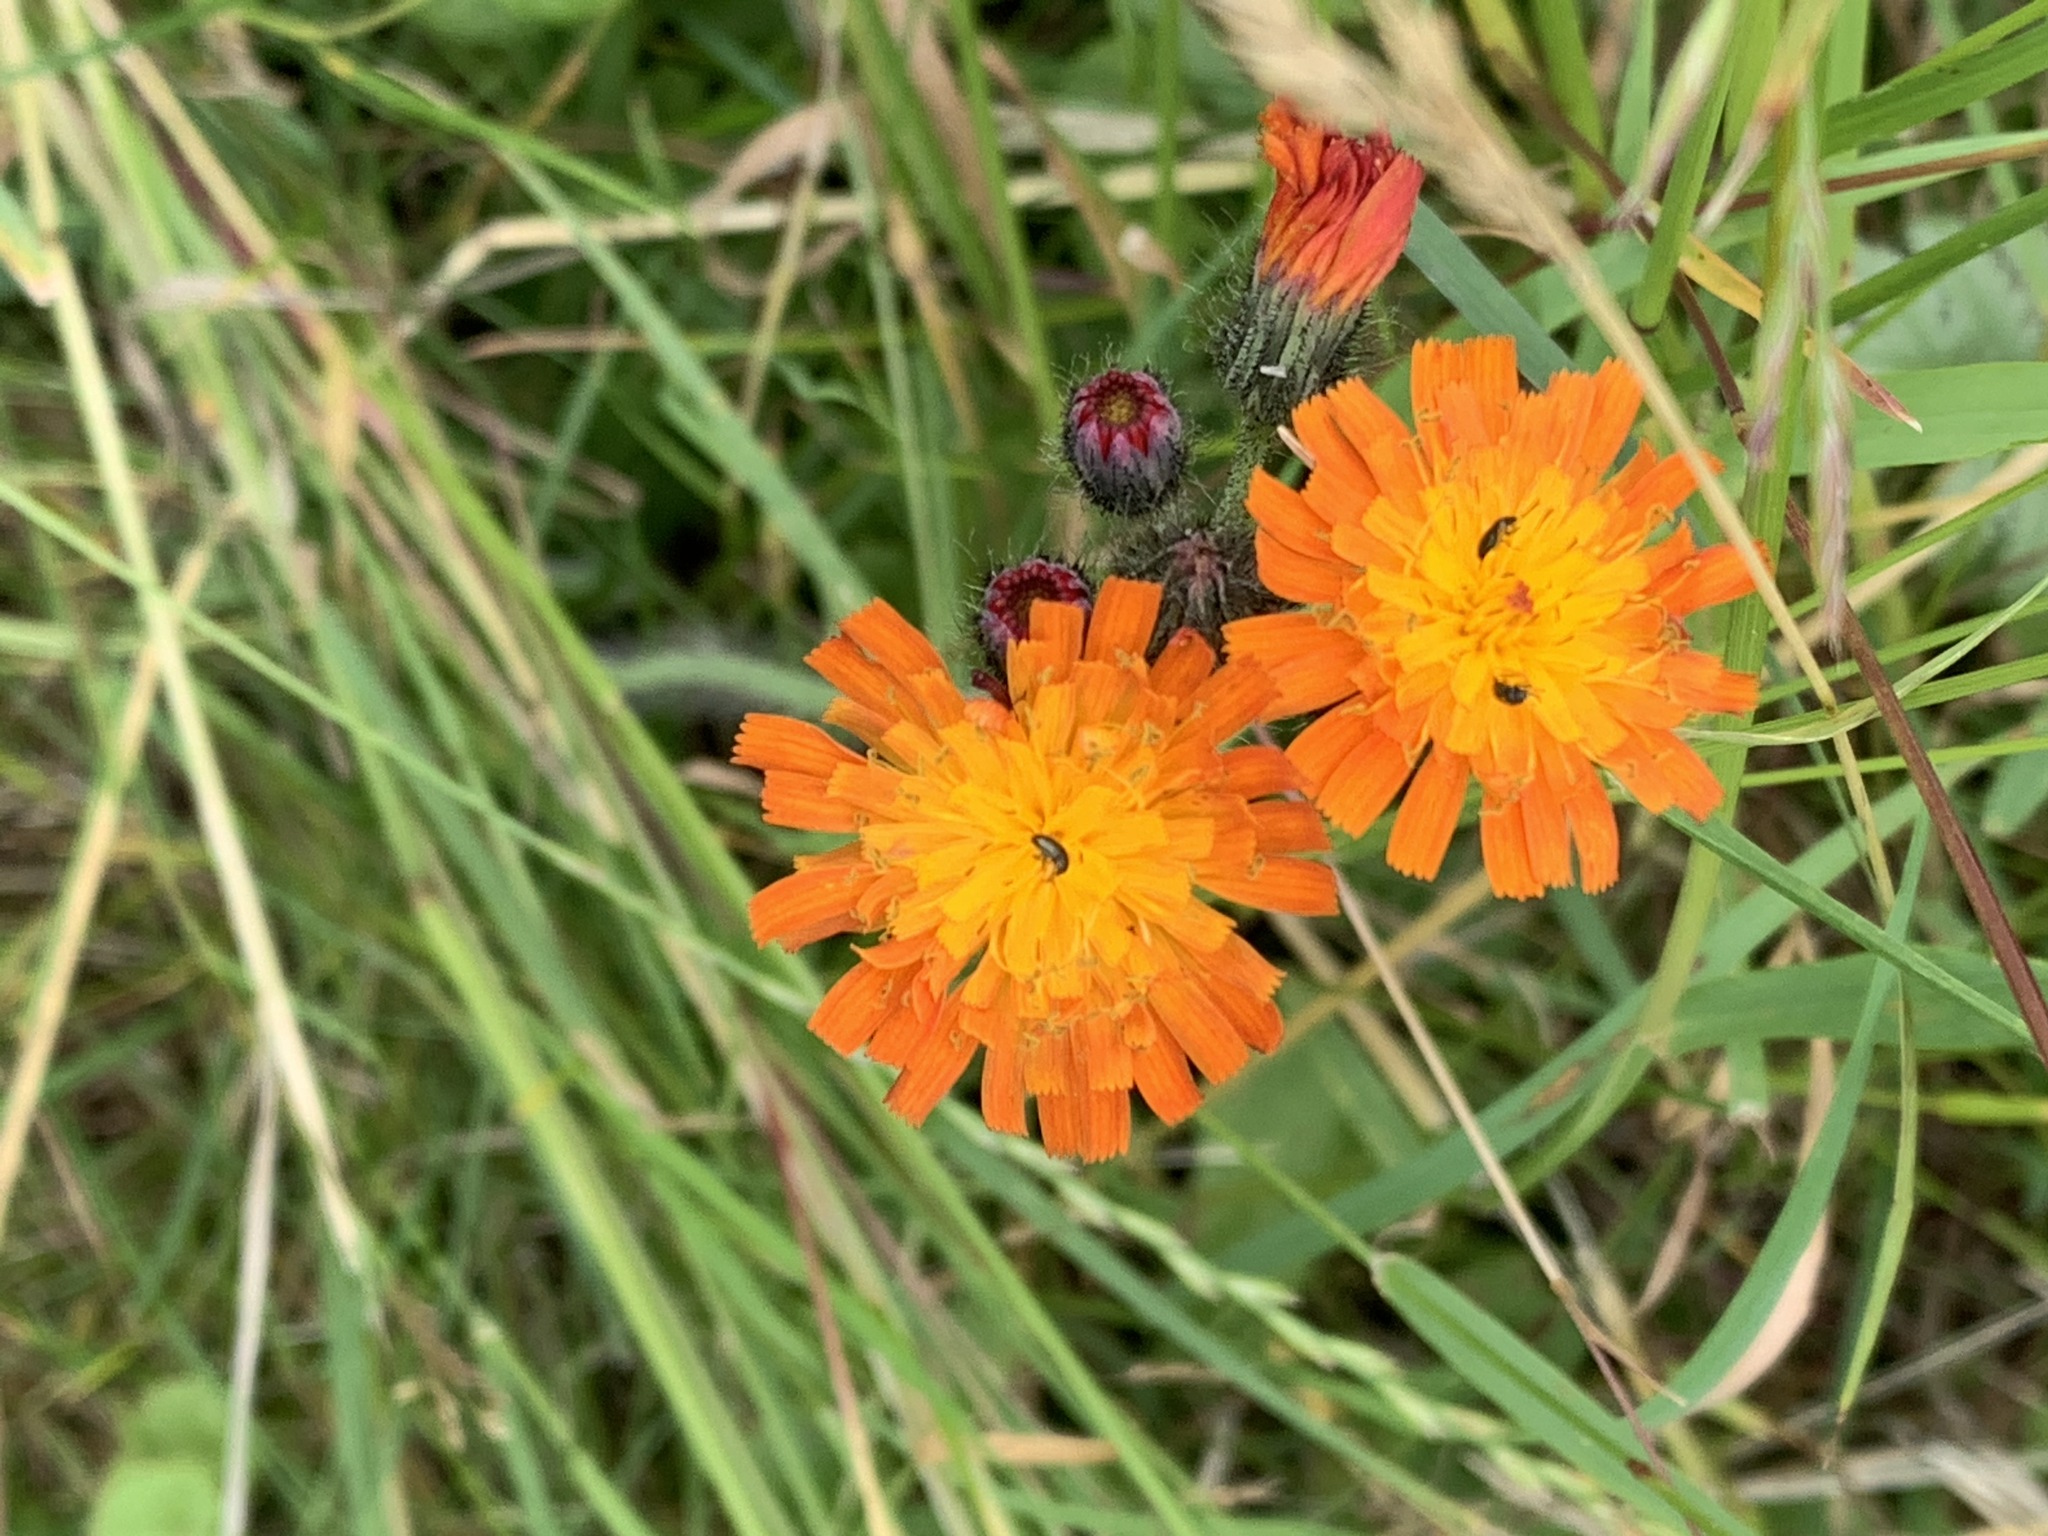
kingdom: Plantae
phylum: Tracheophyta
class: Magnoliopsida
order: Asterales
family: Asteraceae
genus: Pilosella
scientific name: Pilosella aurantiaca
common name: Fox-and-cubs
